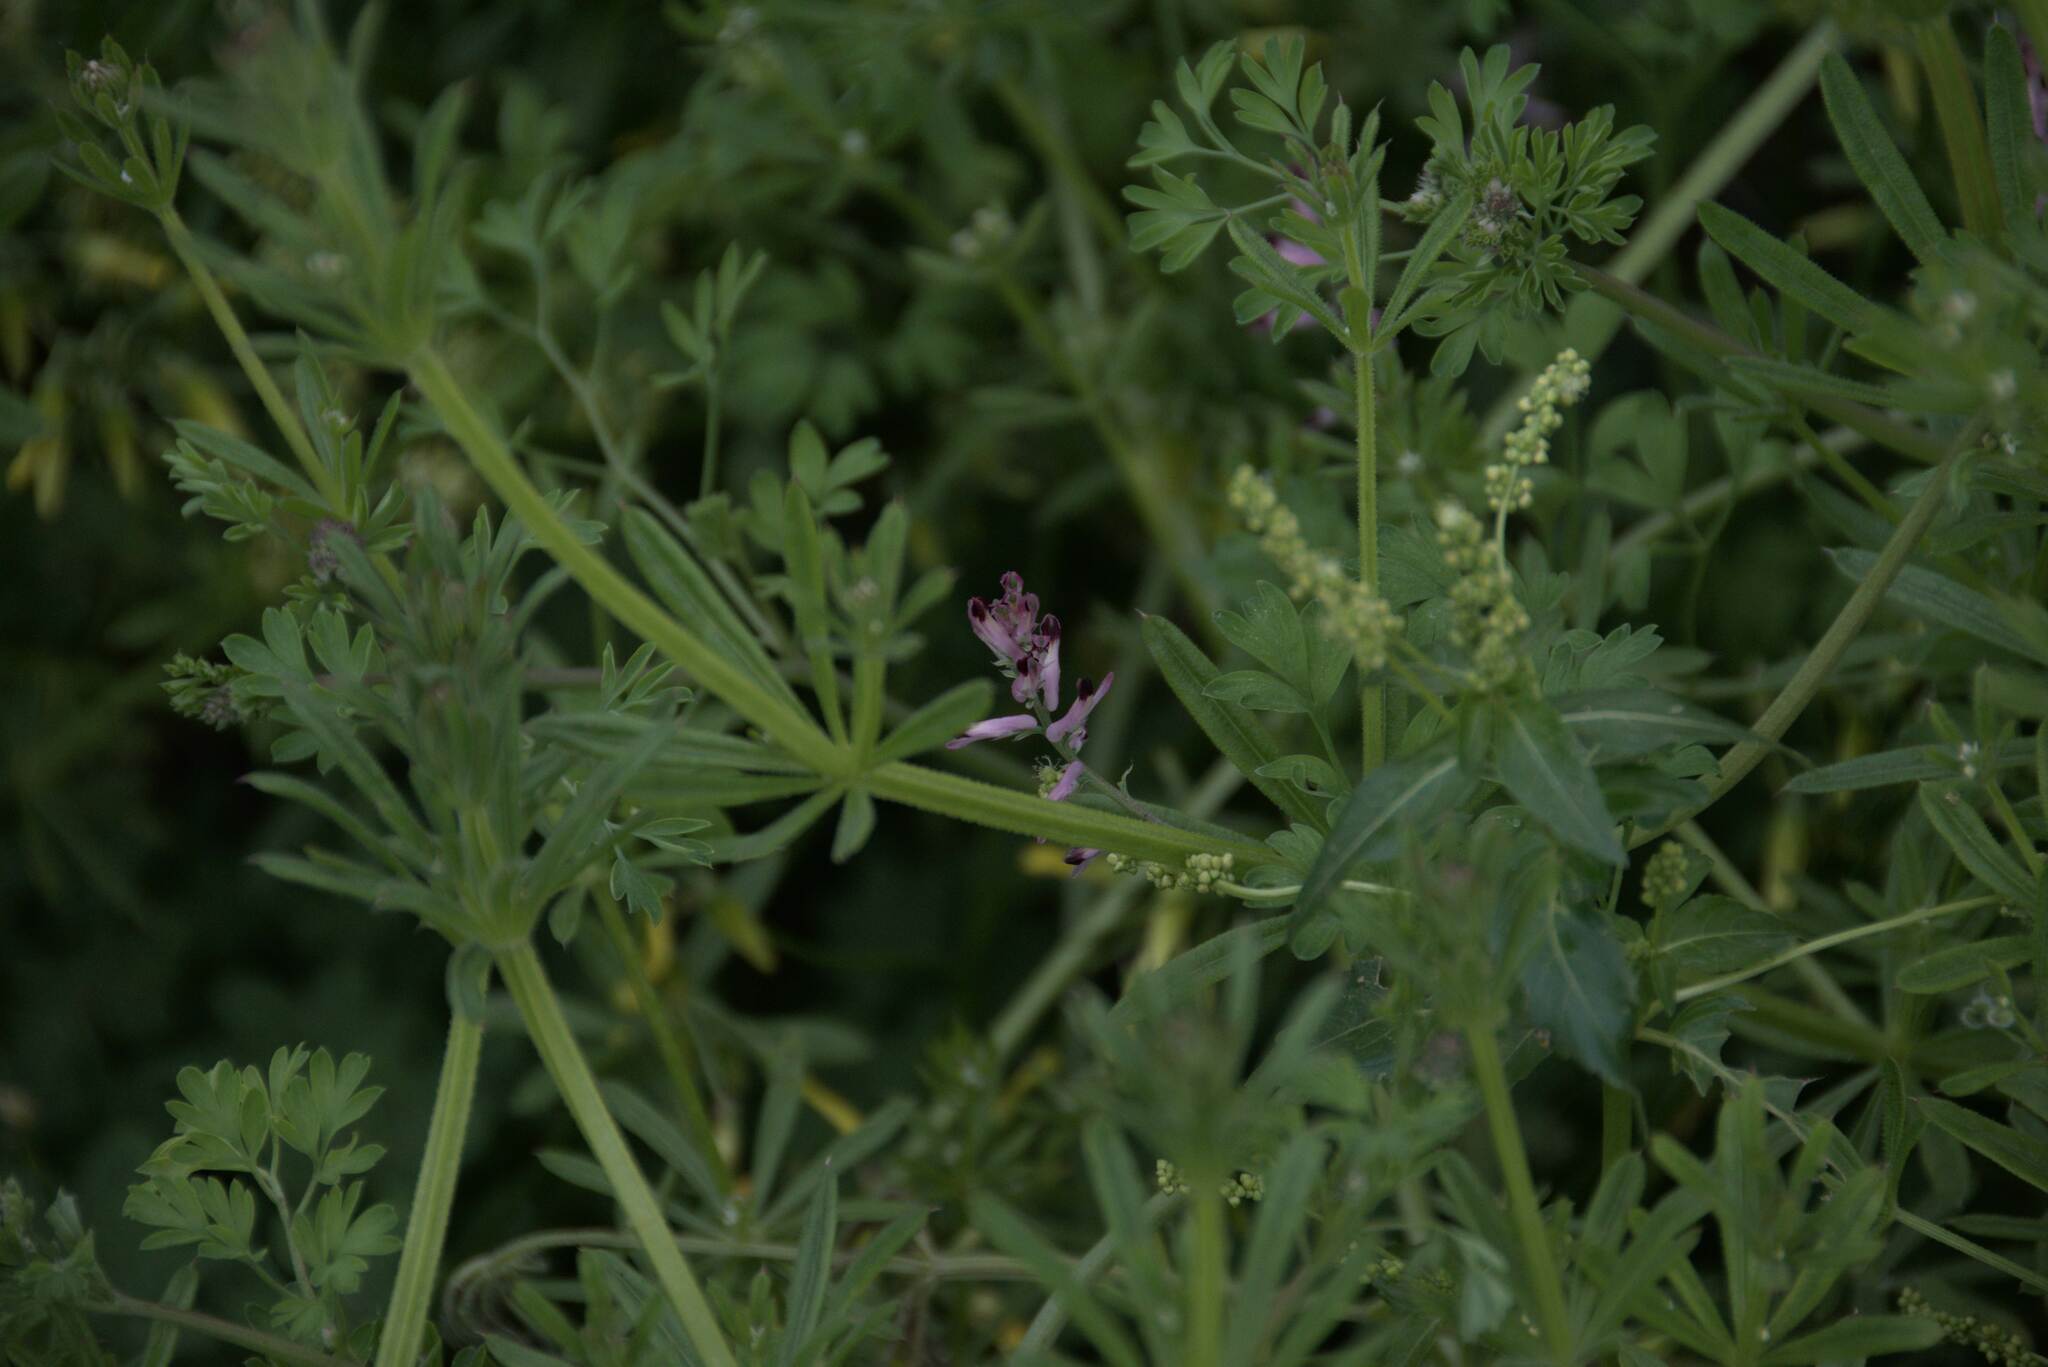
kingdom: Plantae
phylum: Tracheophyta
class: Magnoliopsida
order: Ranunculales
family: Papaveraceae
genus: Fumaria
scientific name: Fumaria
